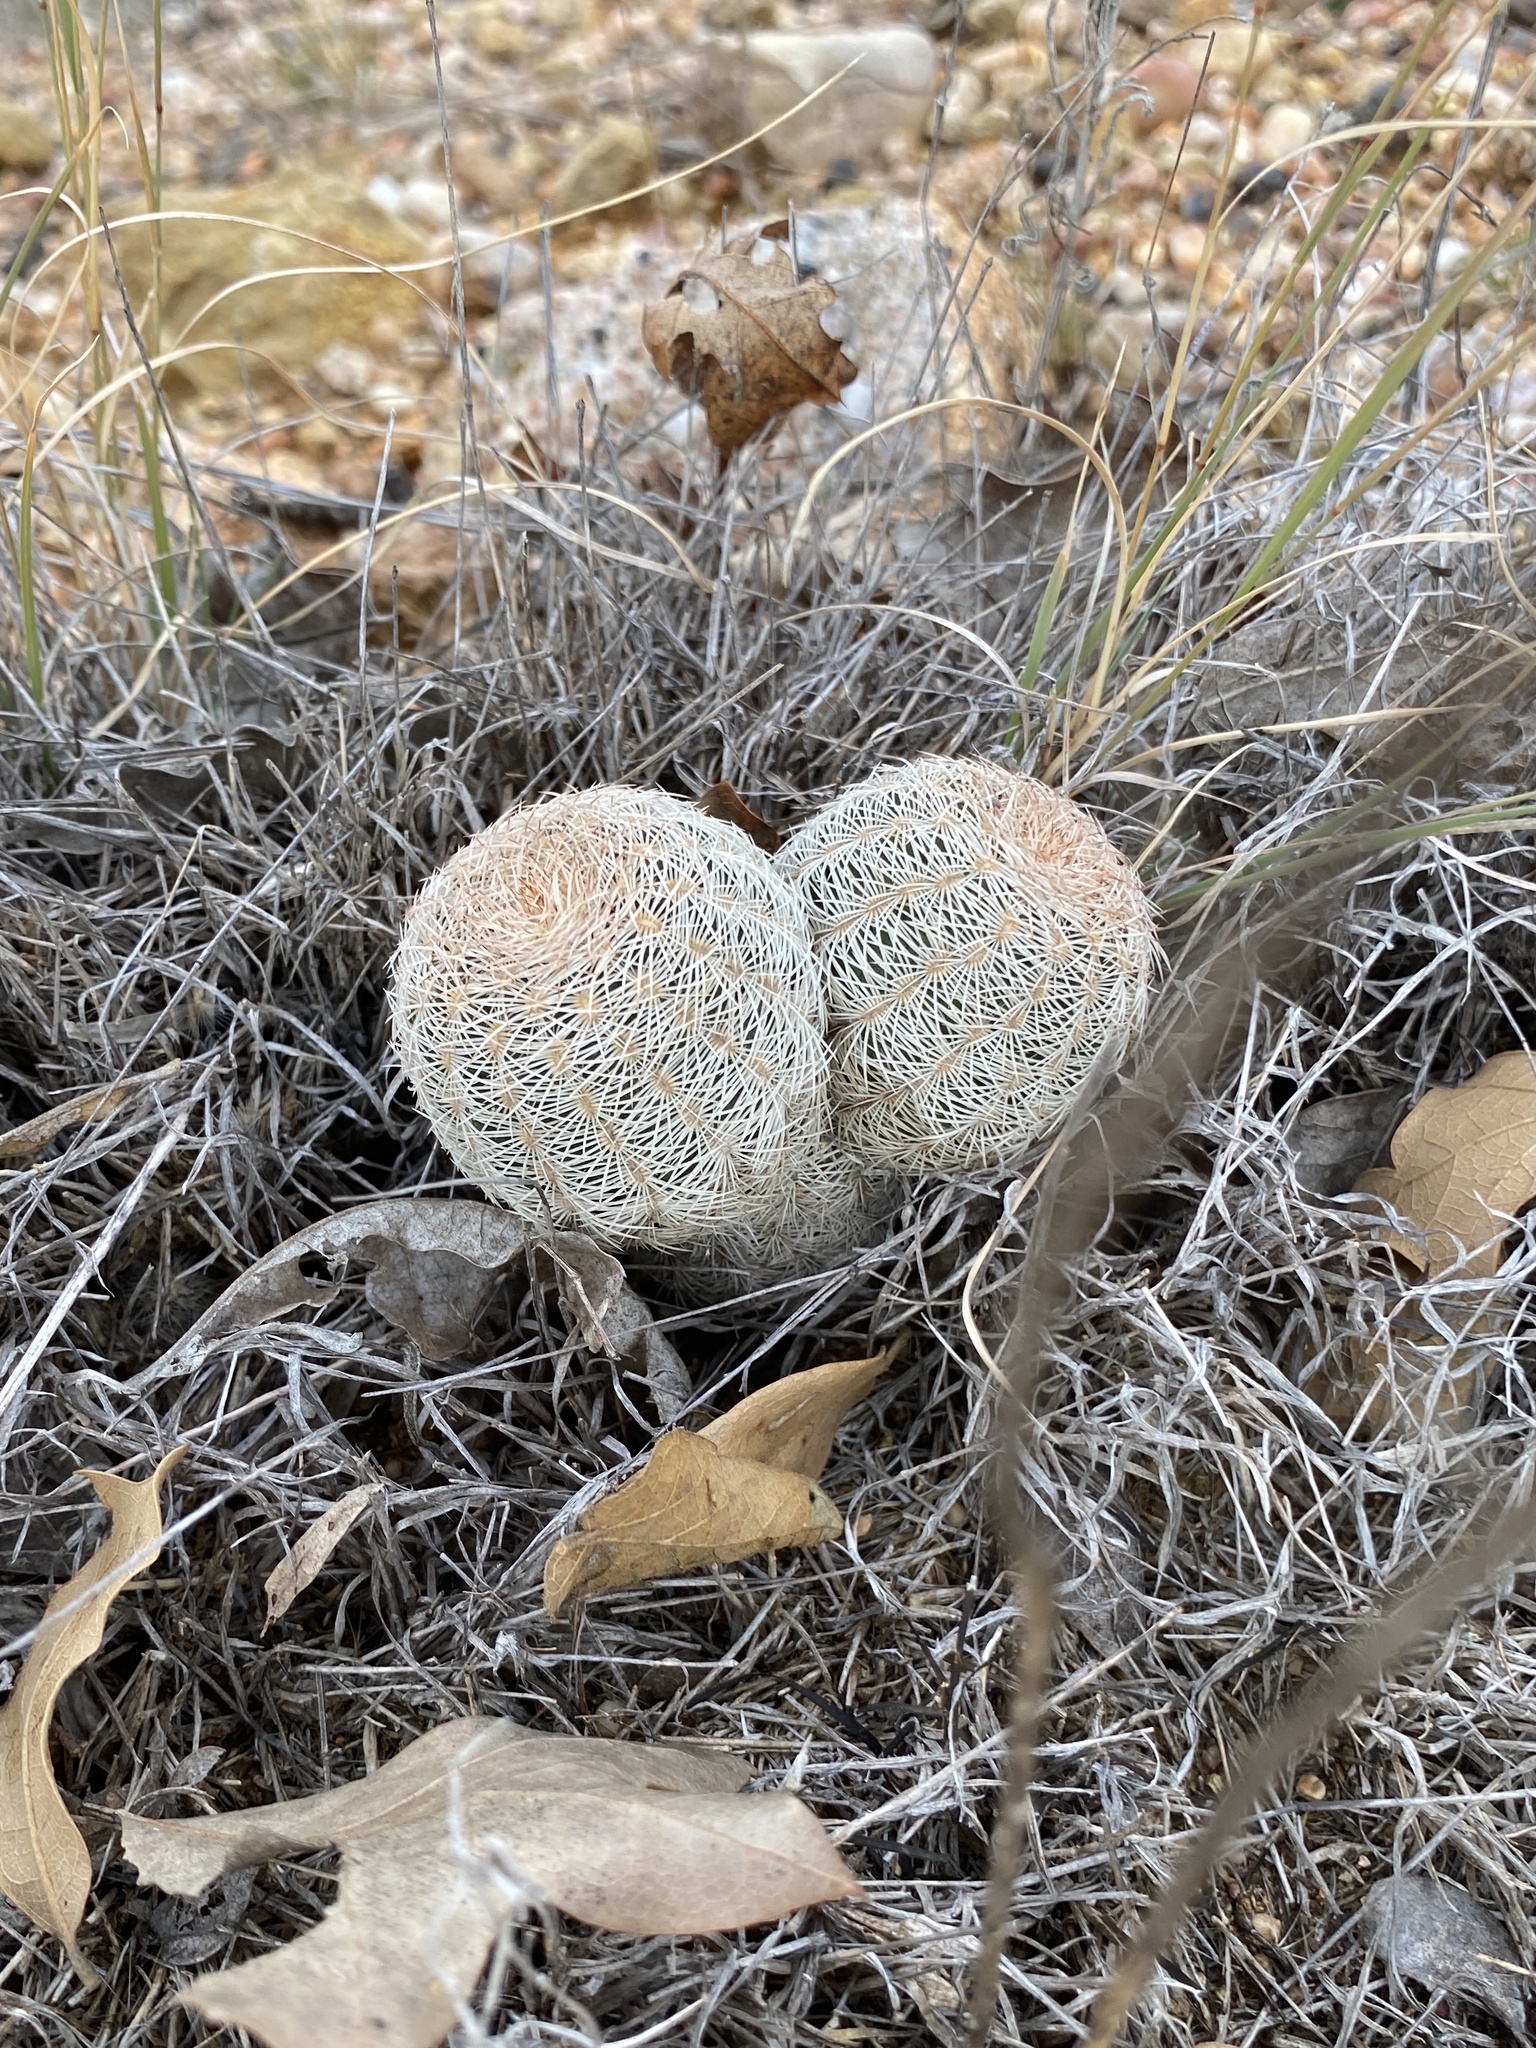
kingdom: Plantae
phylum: Tracheophyta
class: Magnoliopsida
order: Caryophyllales
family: Cactaceae
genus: Echinocereus
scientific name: Echinocereus reichenbachii
